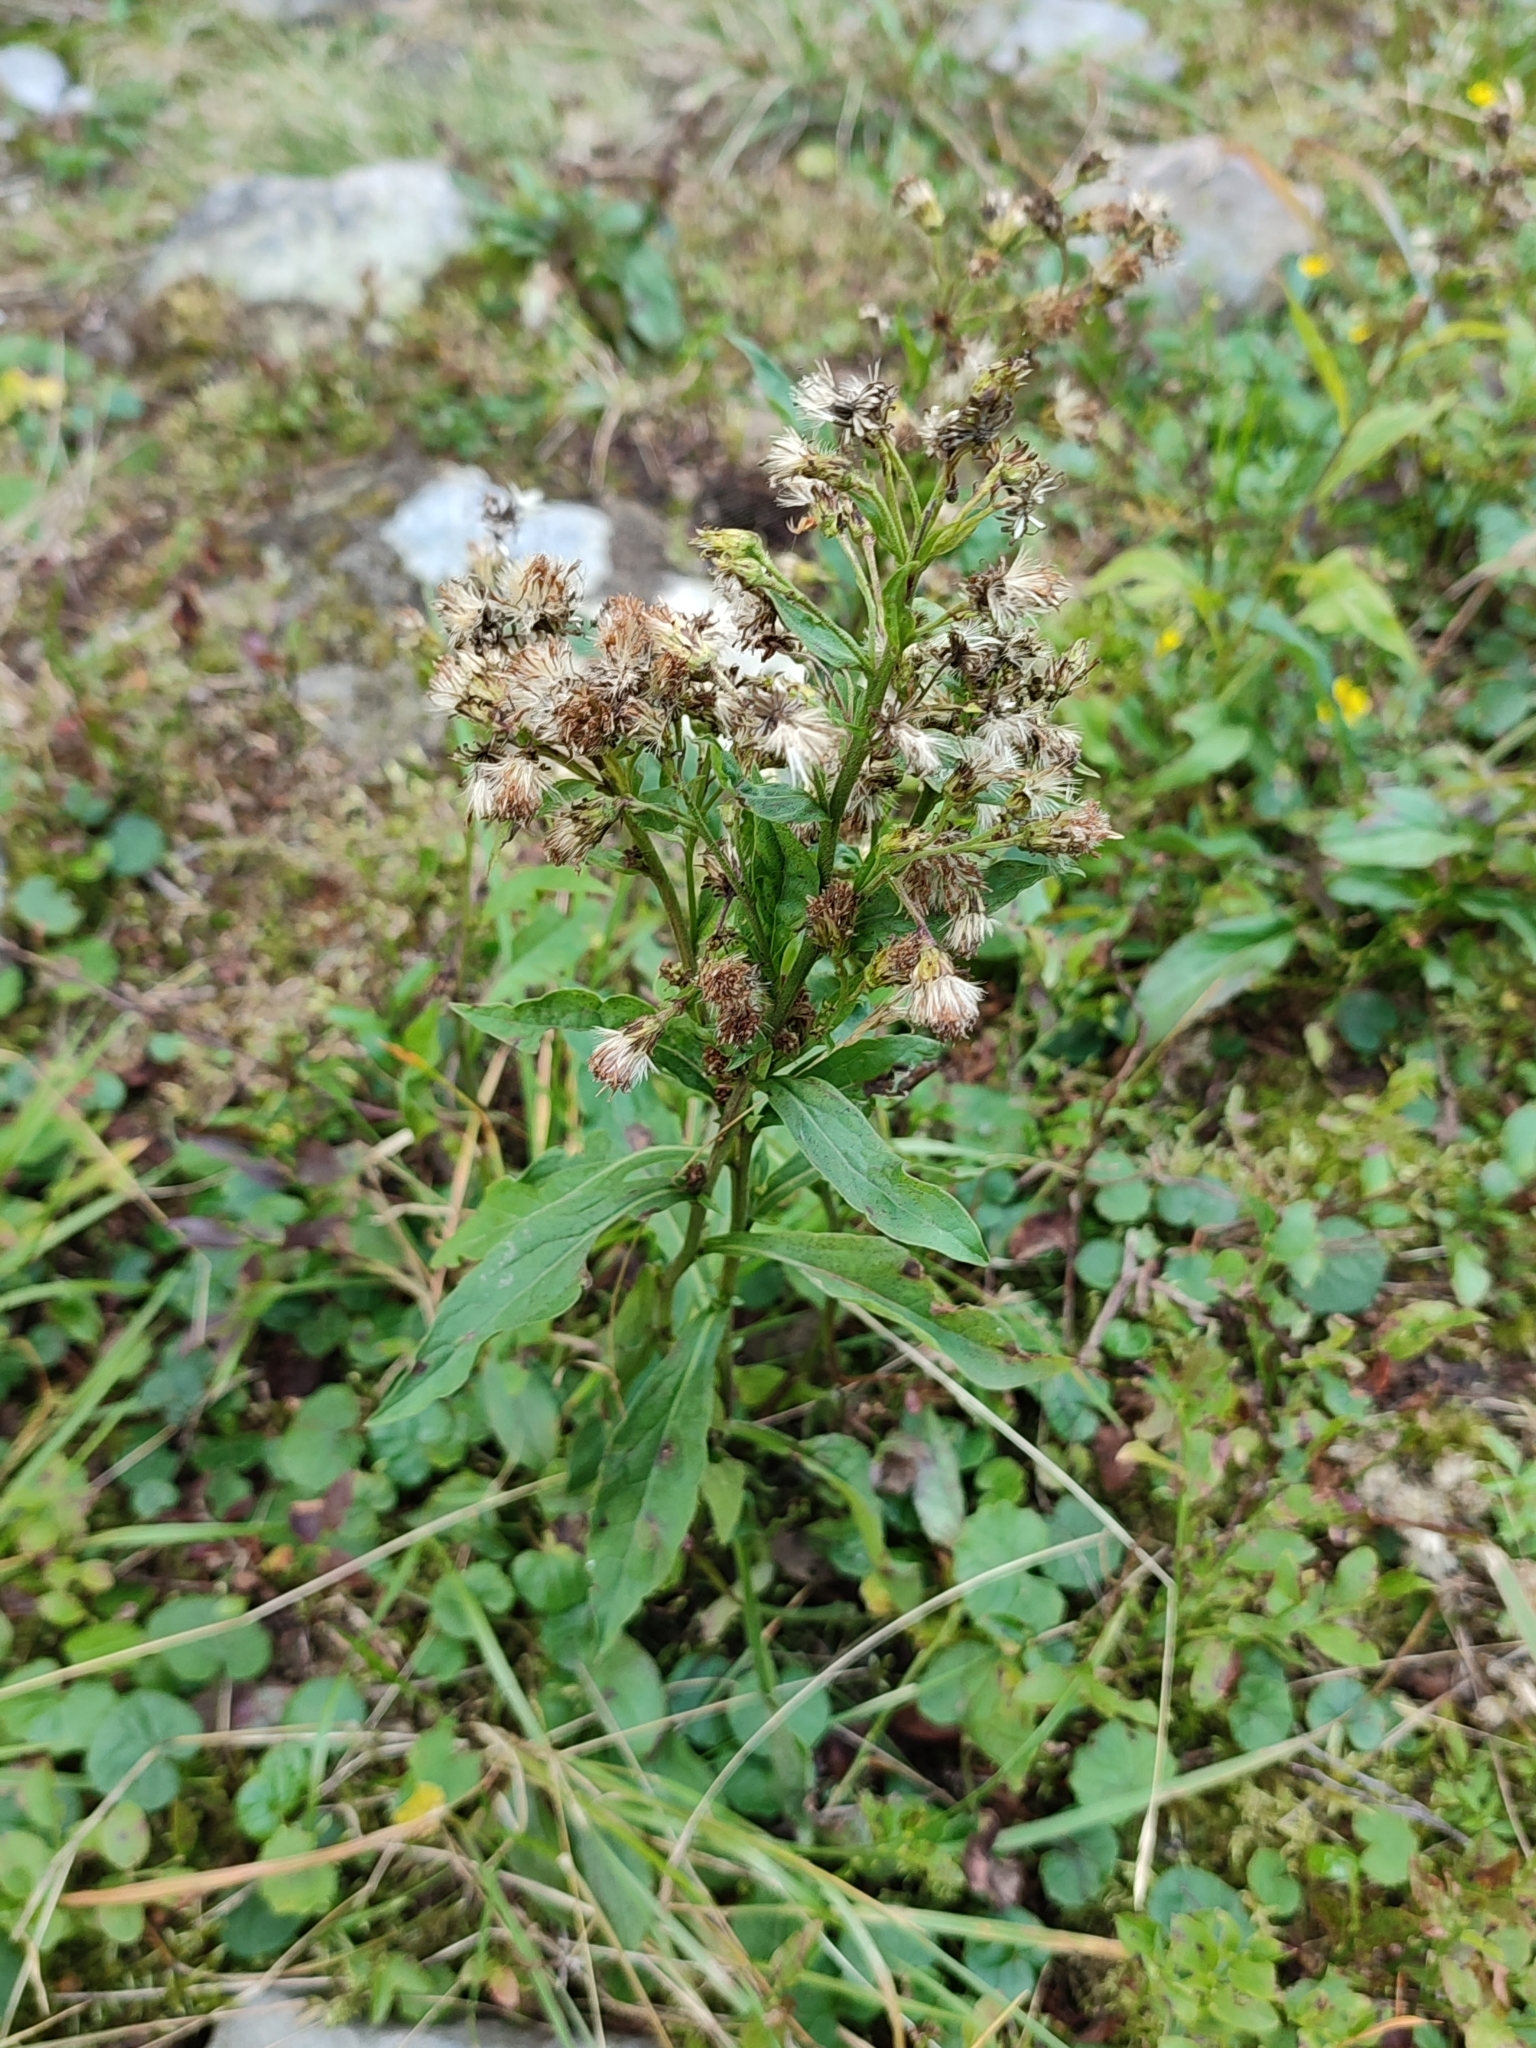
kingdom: Plantae
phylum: Tracheophyta
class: Magnoliopsida
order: Asterales
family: Asteraceae
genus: Solidago
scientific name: Solidago virgaurea
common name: Goldenrod
